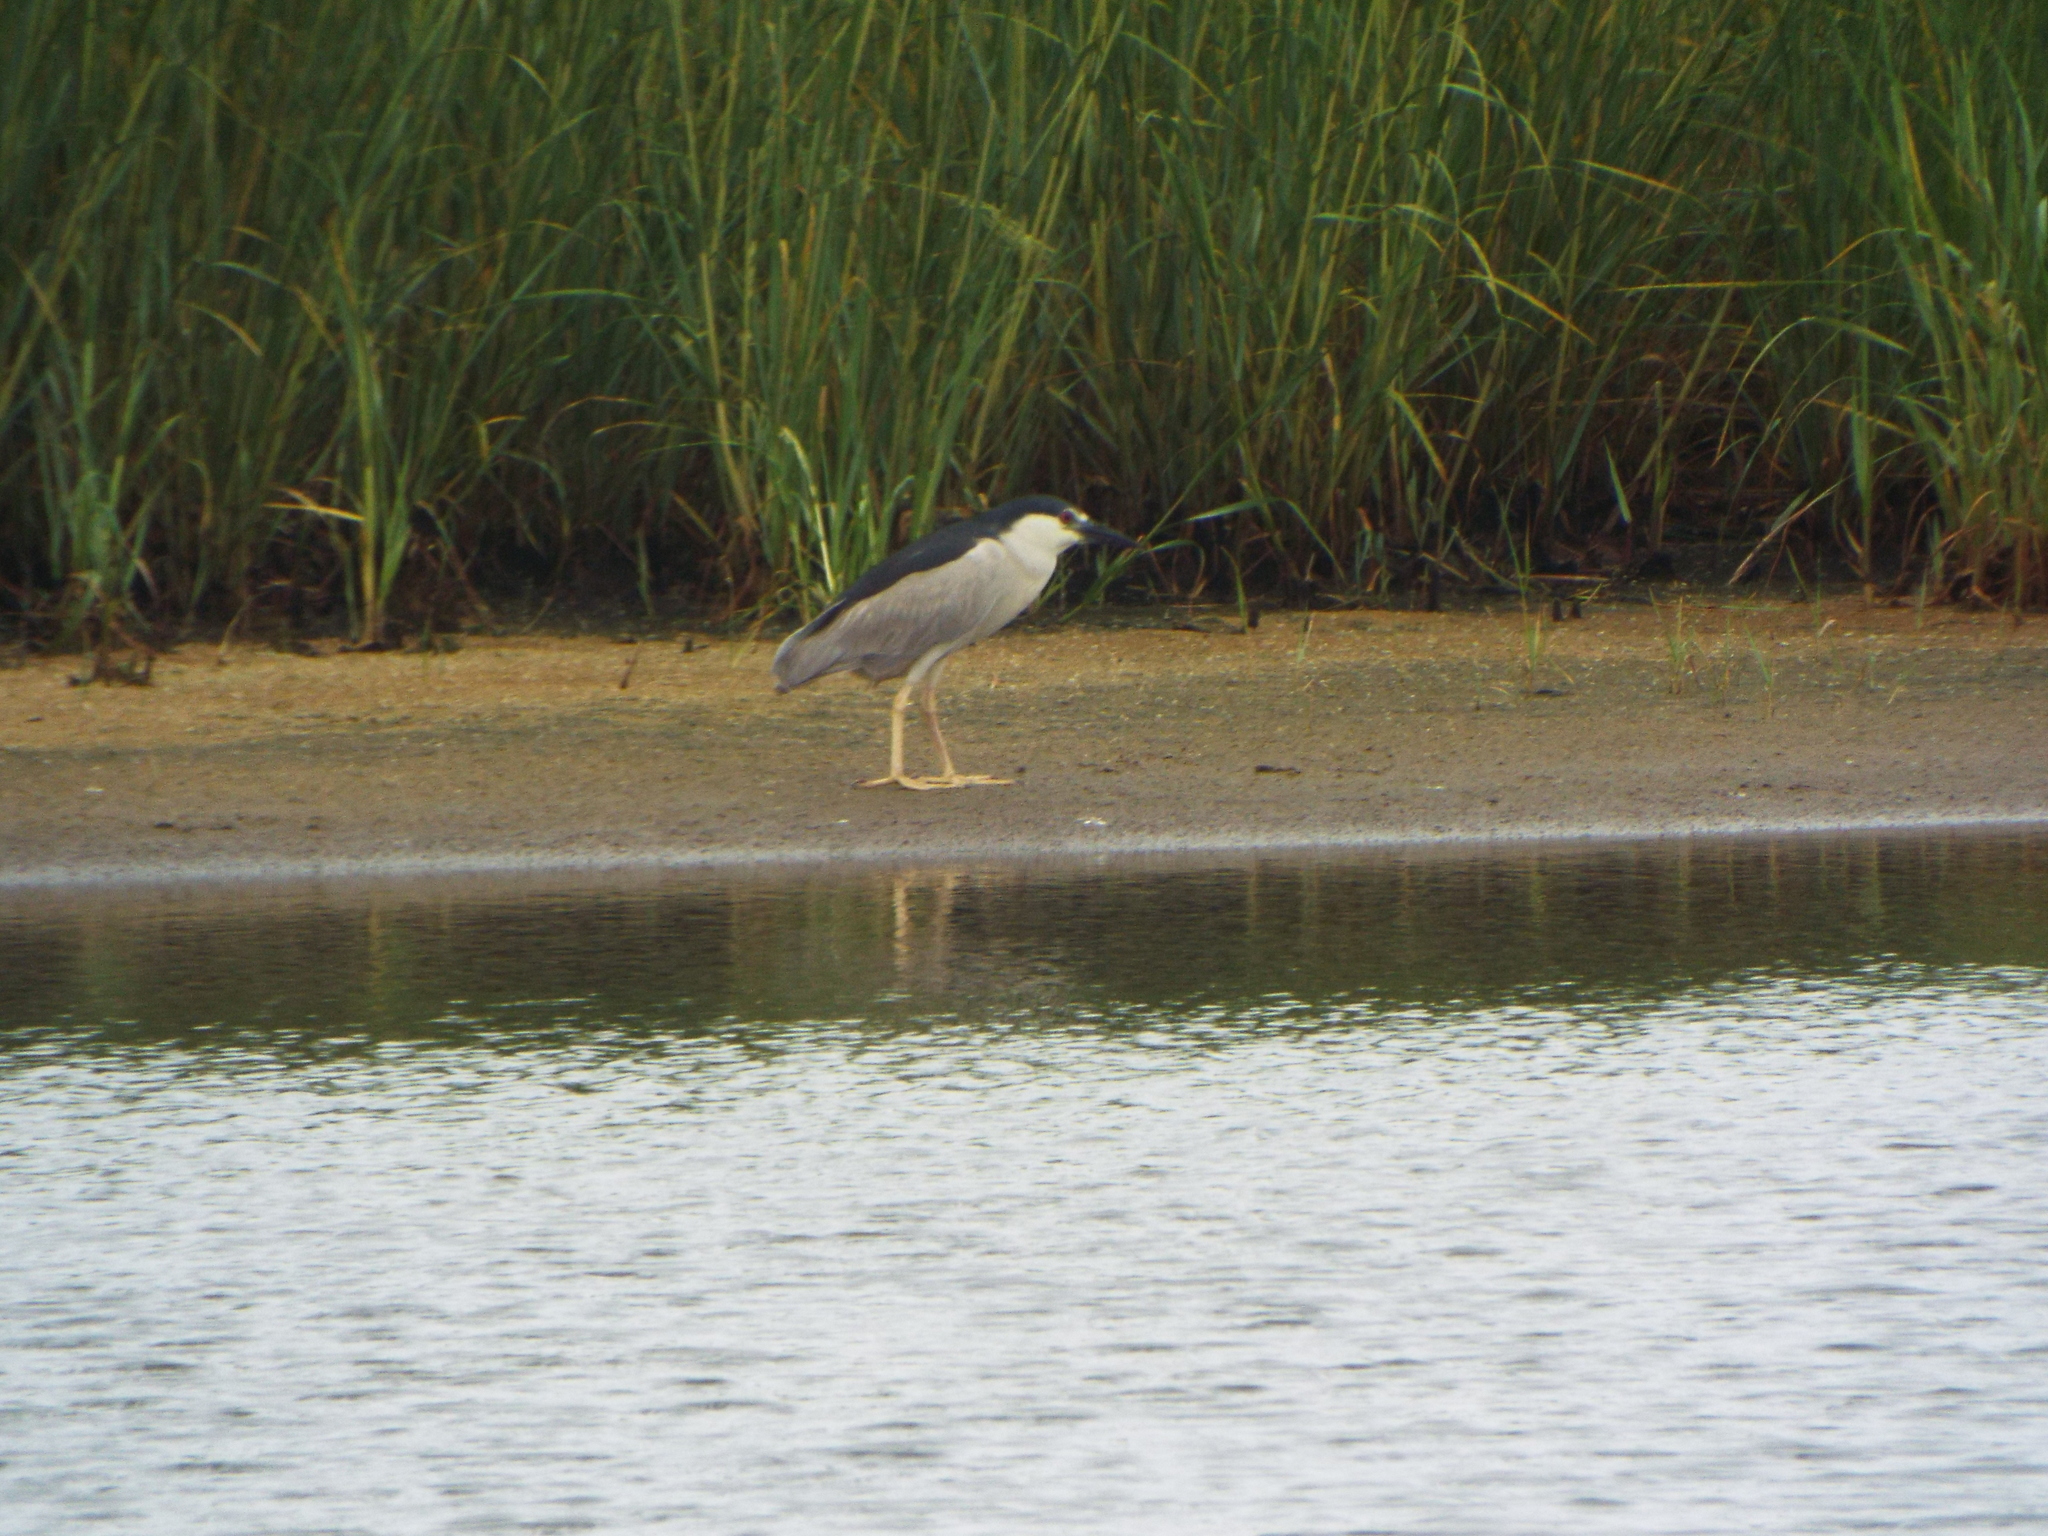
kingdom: Animalia
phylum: Chordata
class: Aves
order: Pelecaniformes
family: Ardeidae
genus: Nycticorax
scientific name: Nycticorax nycticorax
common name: Black-crowned night heron
